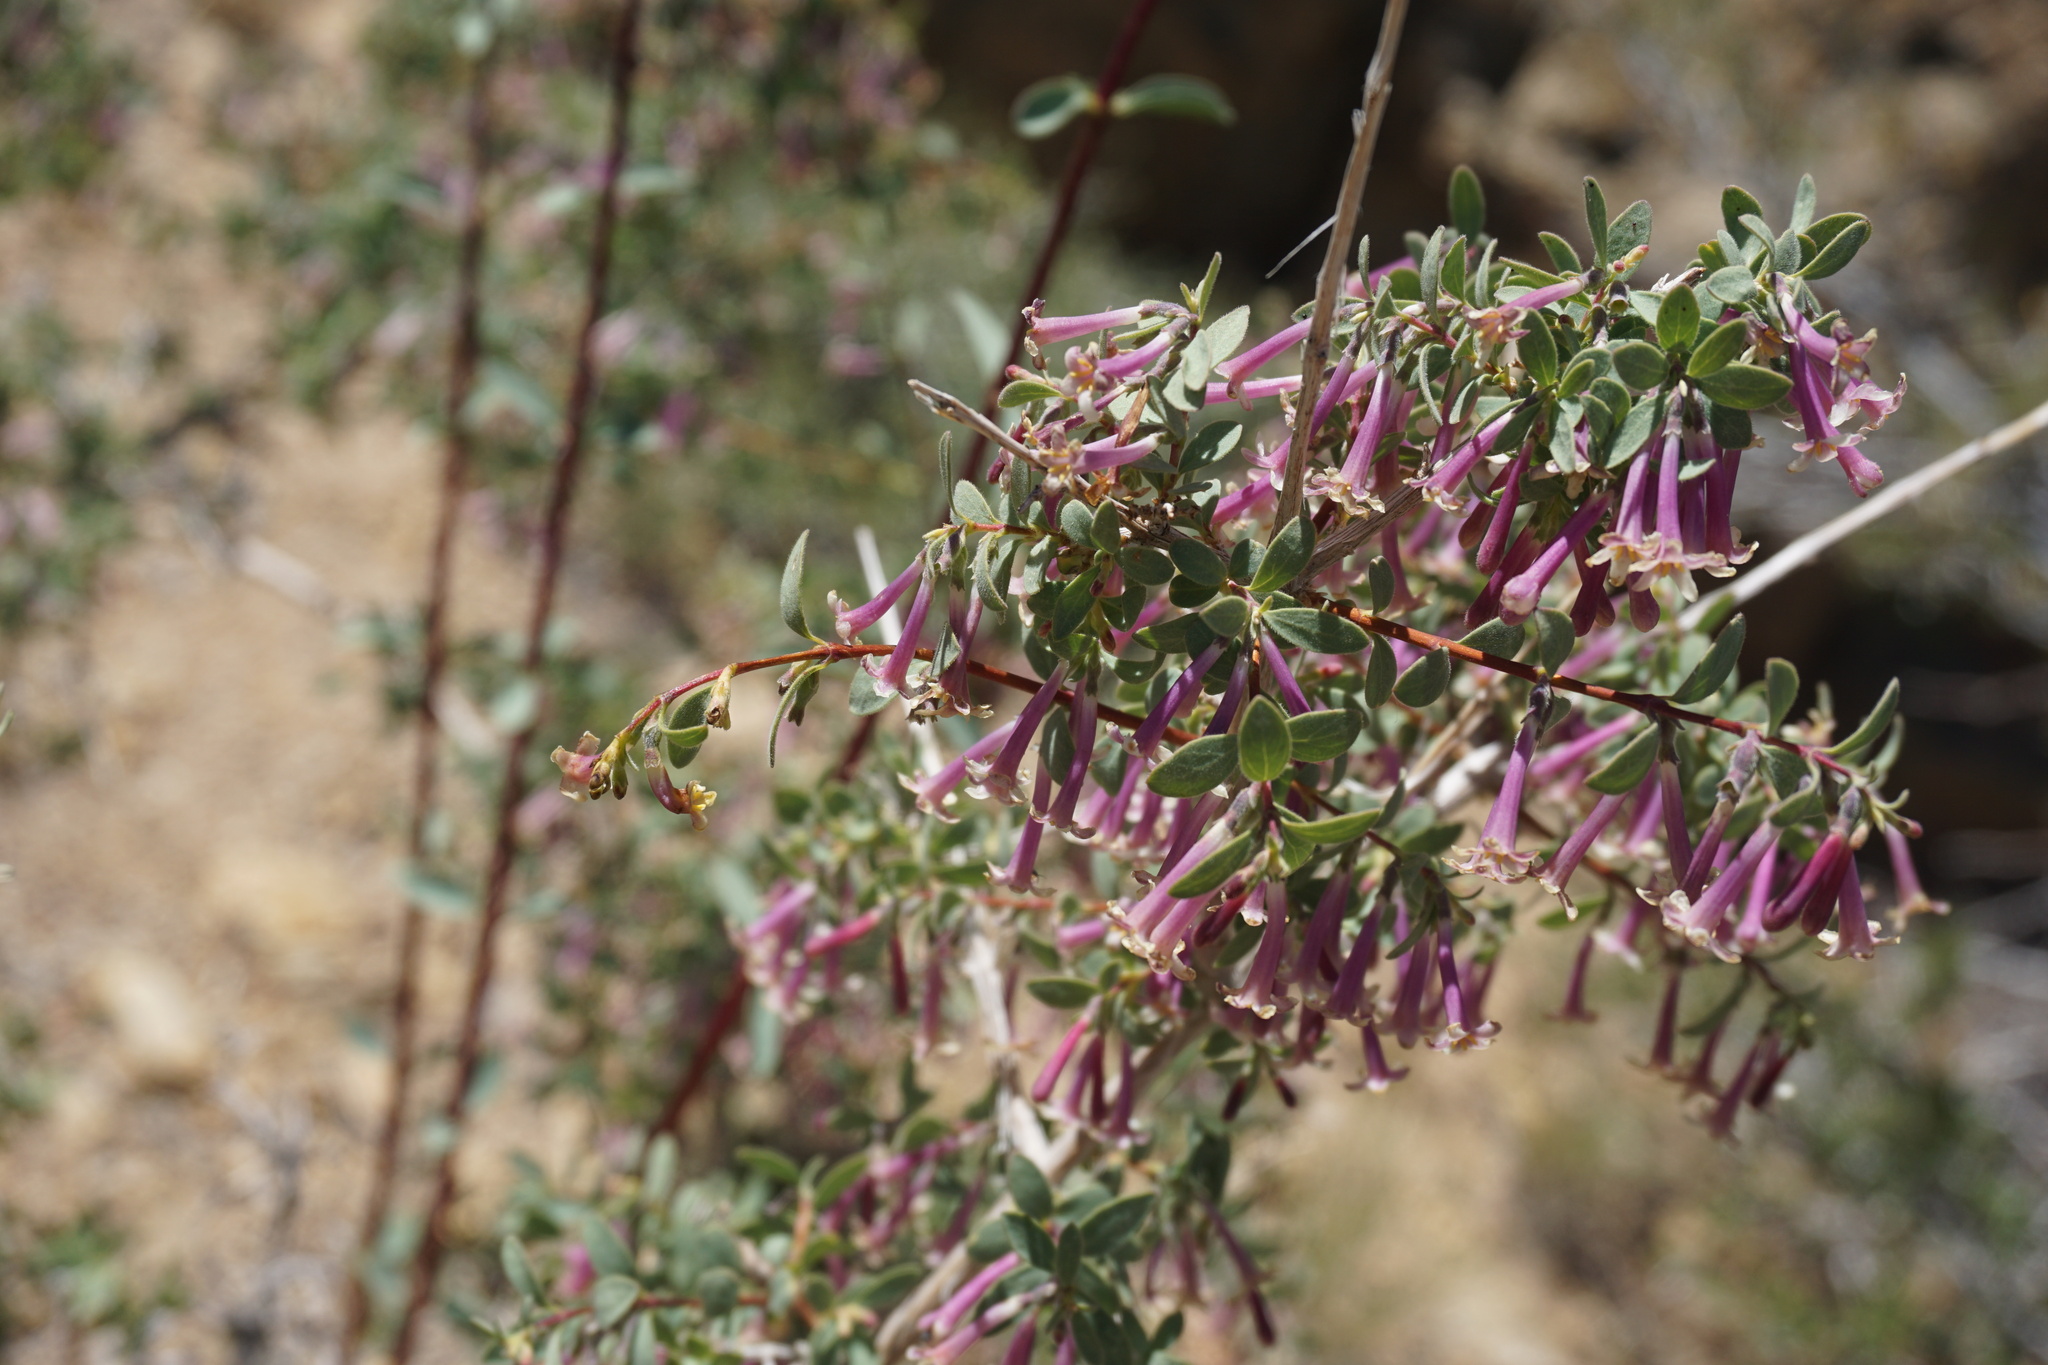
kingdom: Plantae
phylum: Tracheophyta
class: Magnoliopsida
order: Dipsacales
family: Caprifoliaceae
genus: Symphoricarpos
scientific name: Symphoricarpos longiflorus
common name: Fragrant snowberry
